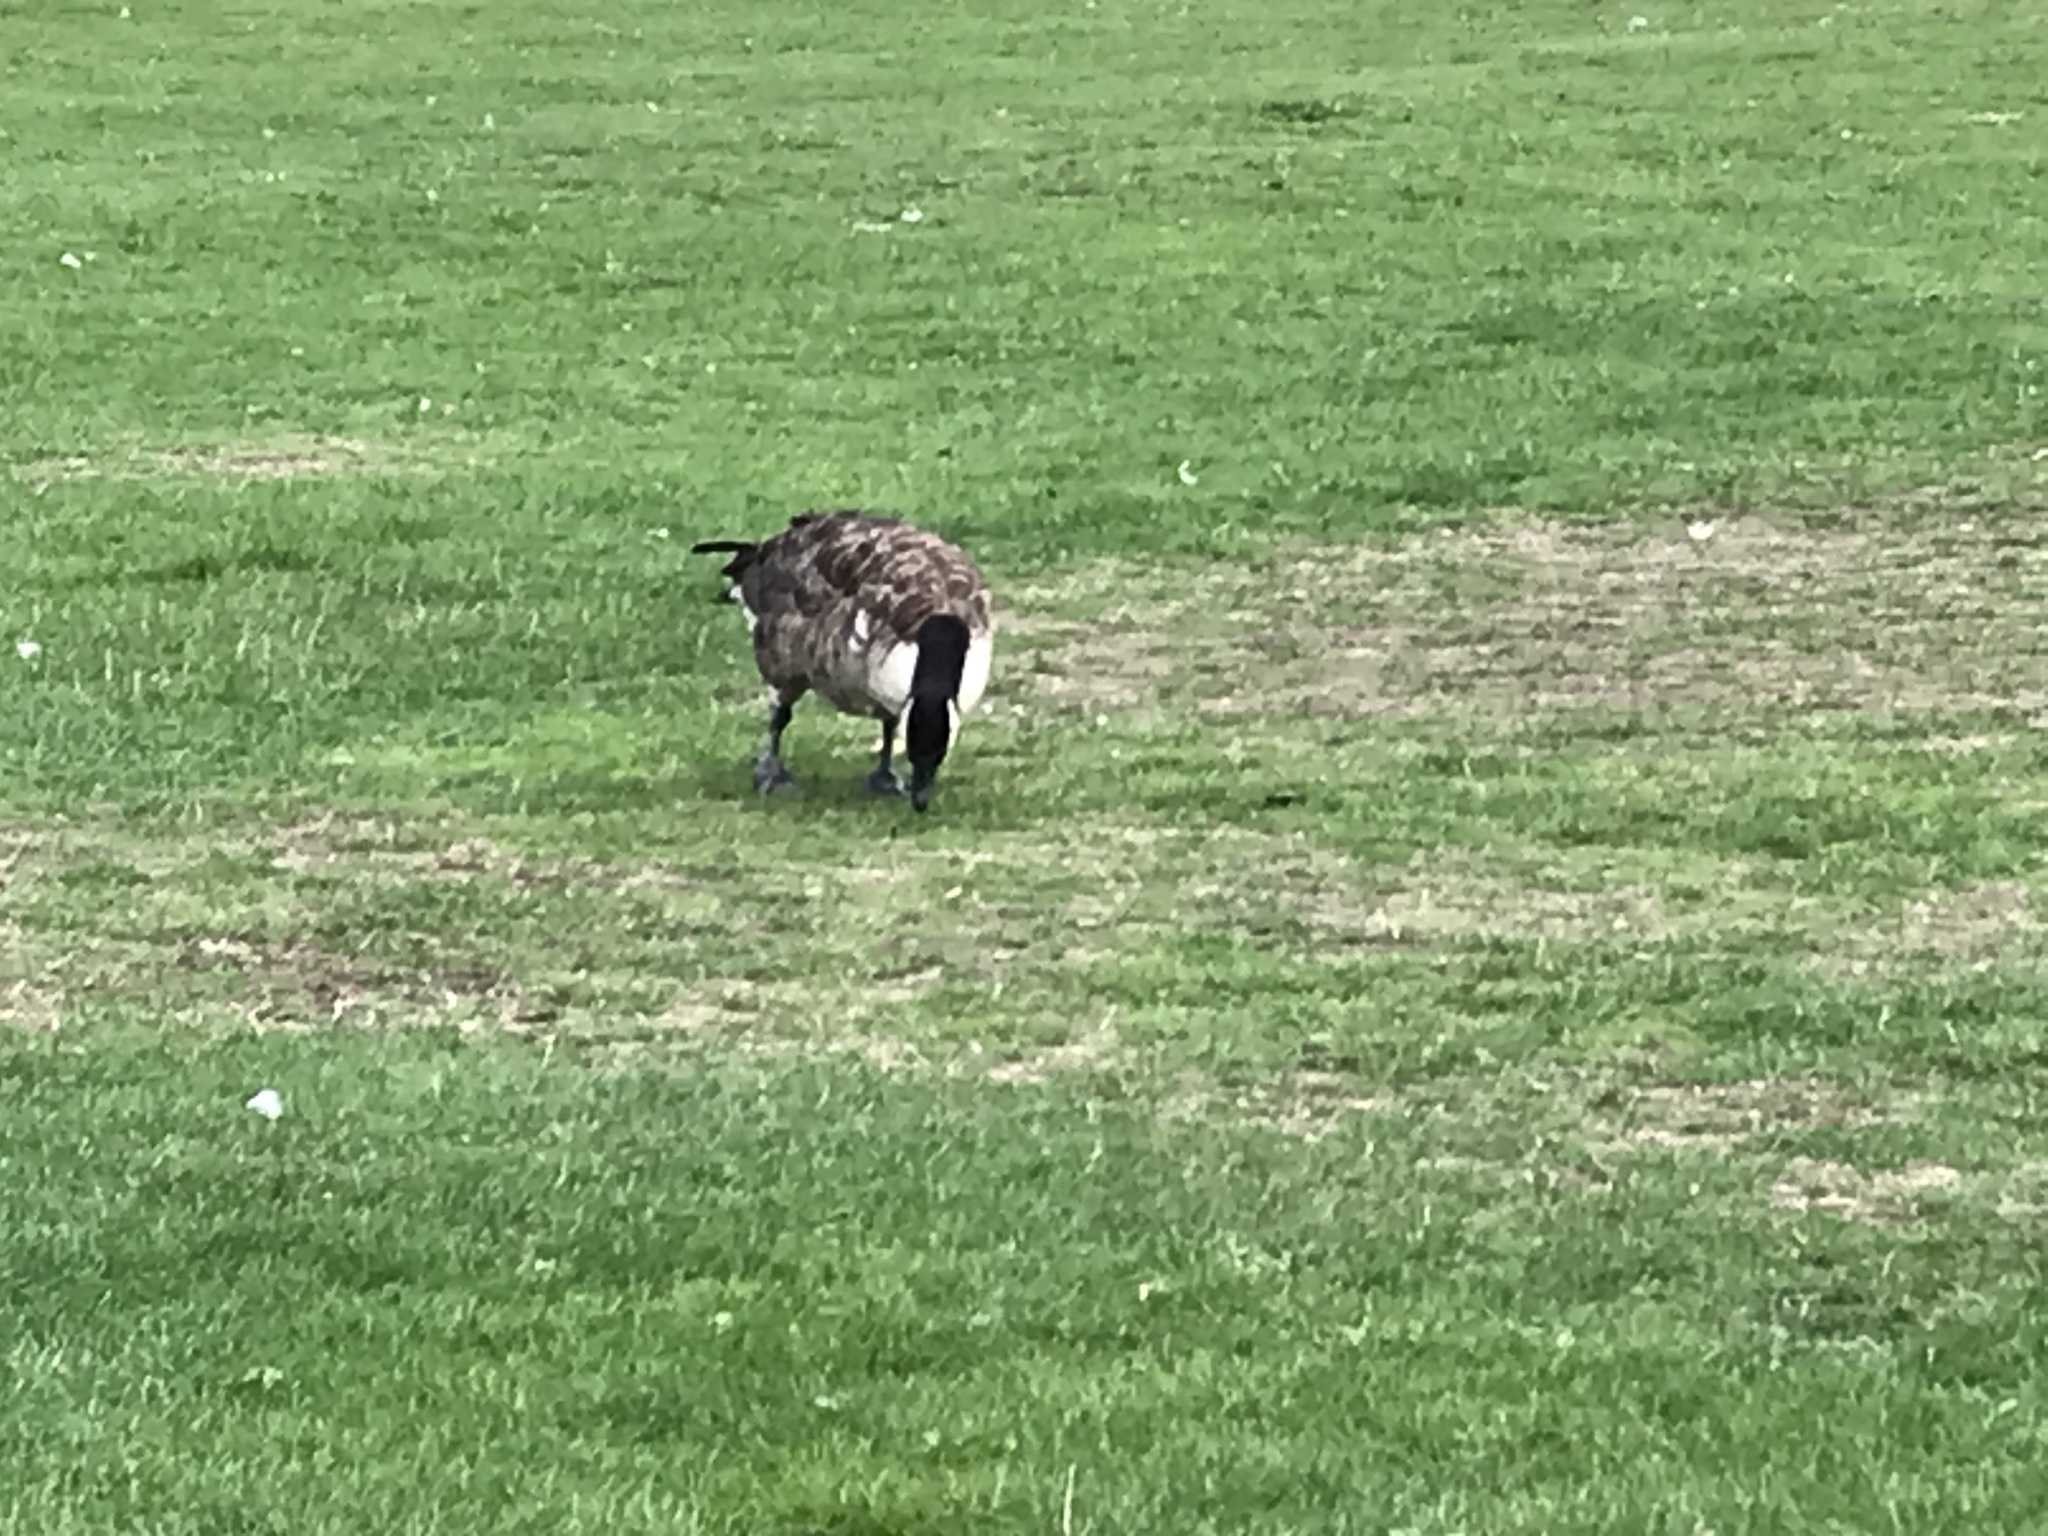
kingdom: Animalia
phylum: Chordata
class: Aves
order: Anseriformes
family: Anatidae
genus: Branta
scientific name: Branta canadensis
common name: Canada goose
